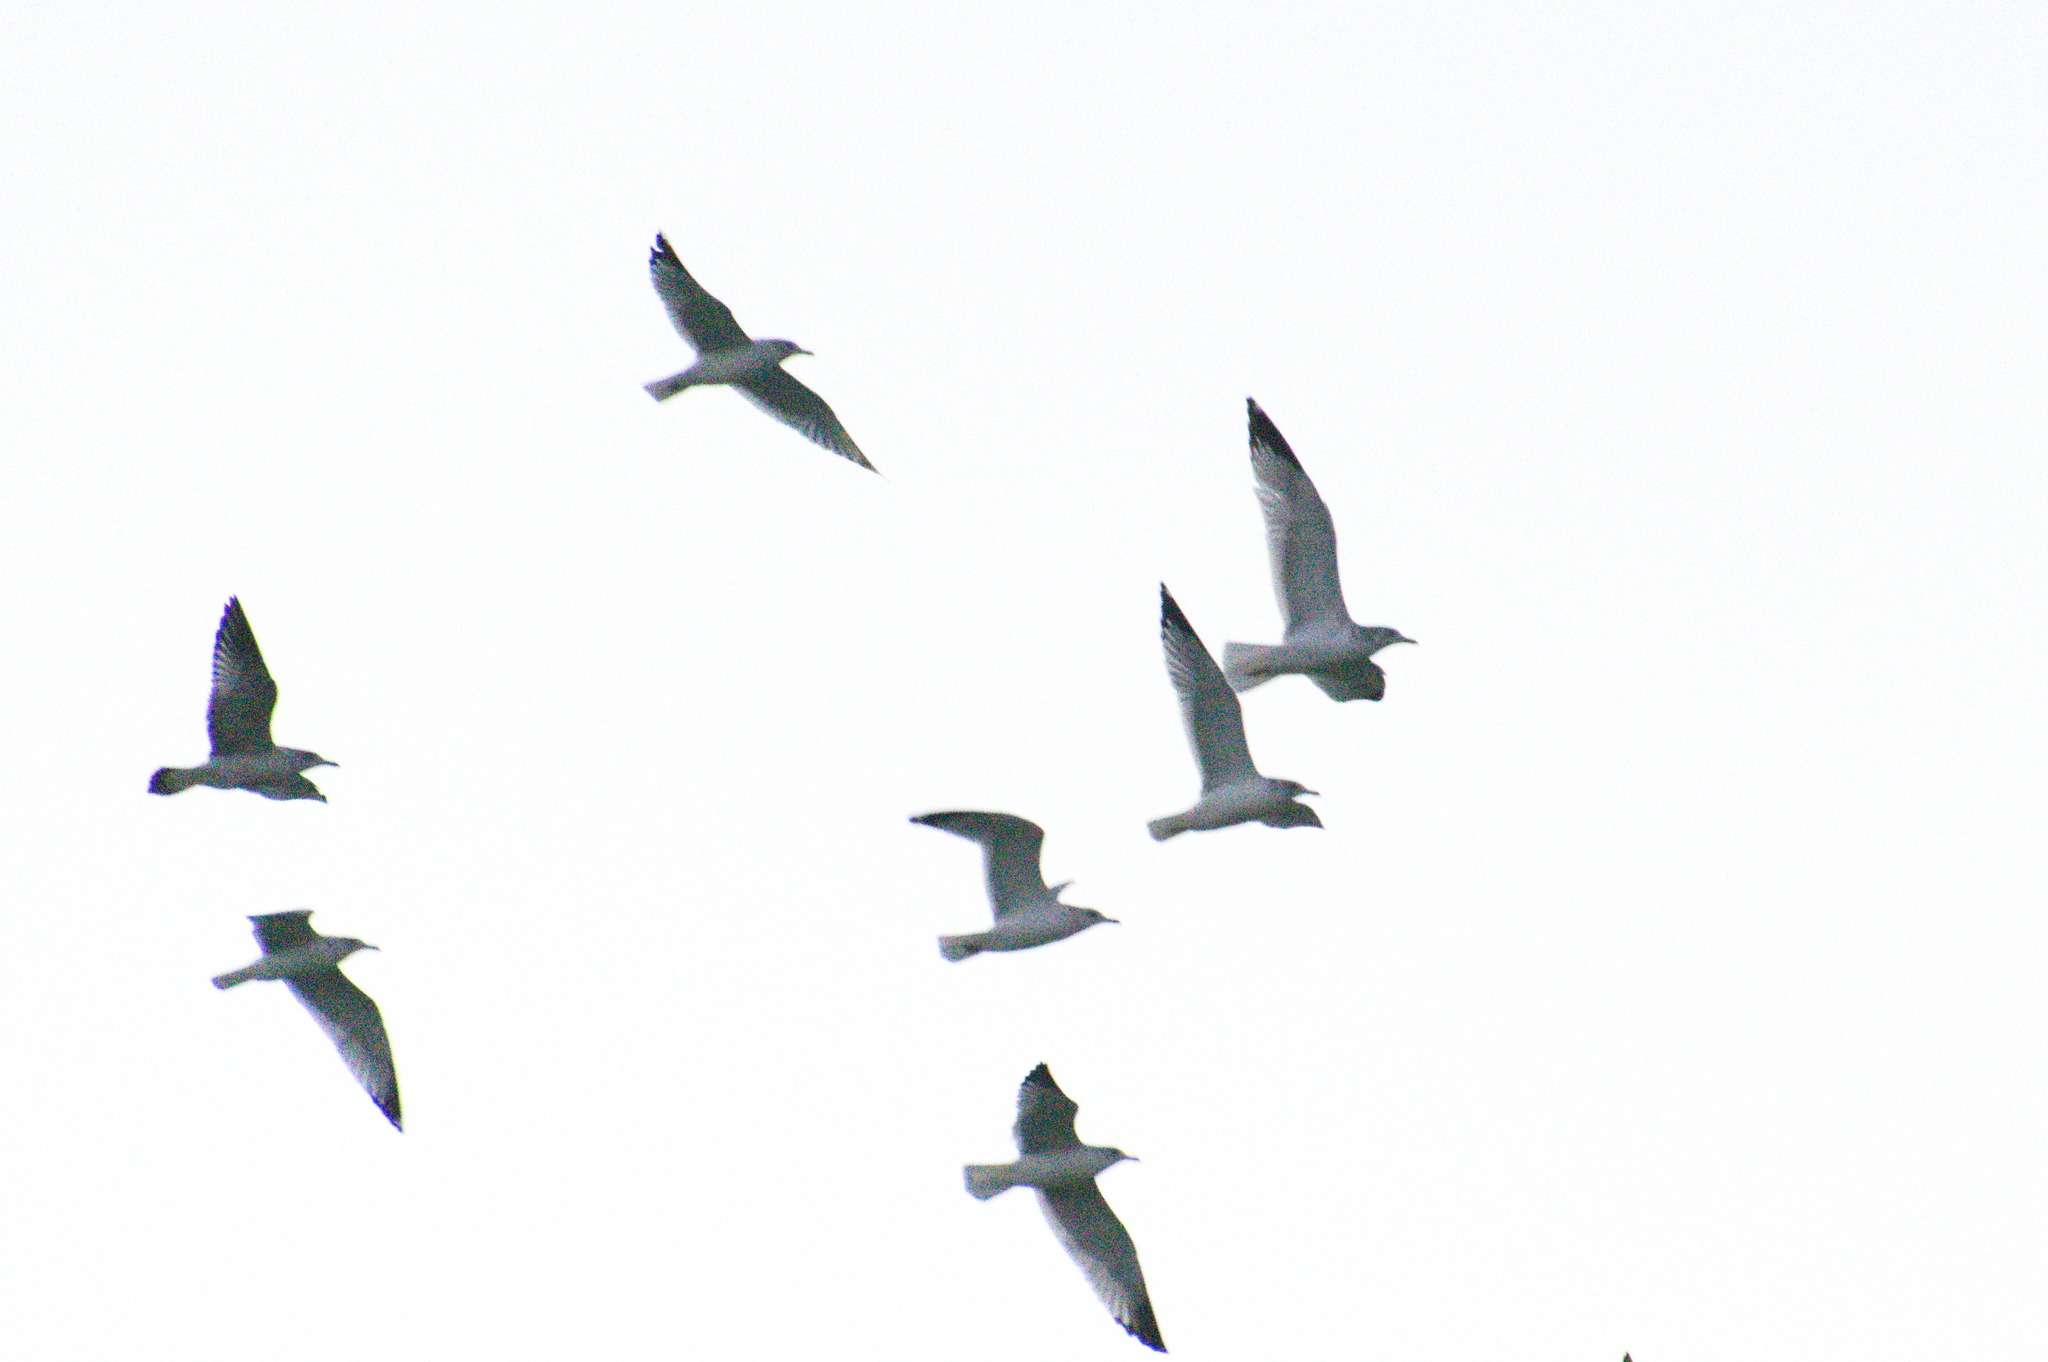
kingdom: Animalia
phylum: Chordata
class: Aves
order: Charadriiformes
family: Laridae
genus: Larus
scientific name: Larus delawarensis
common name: Ring-billed gull
